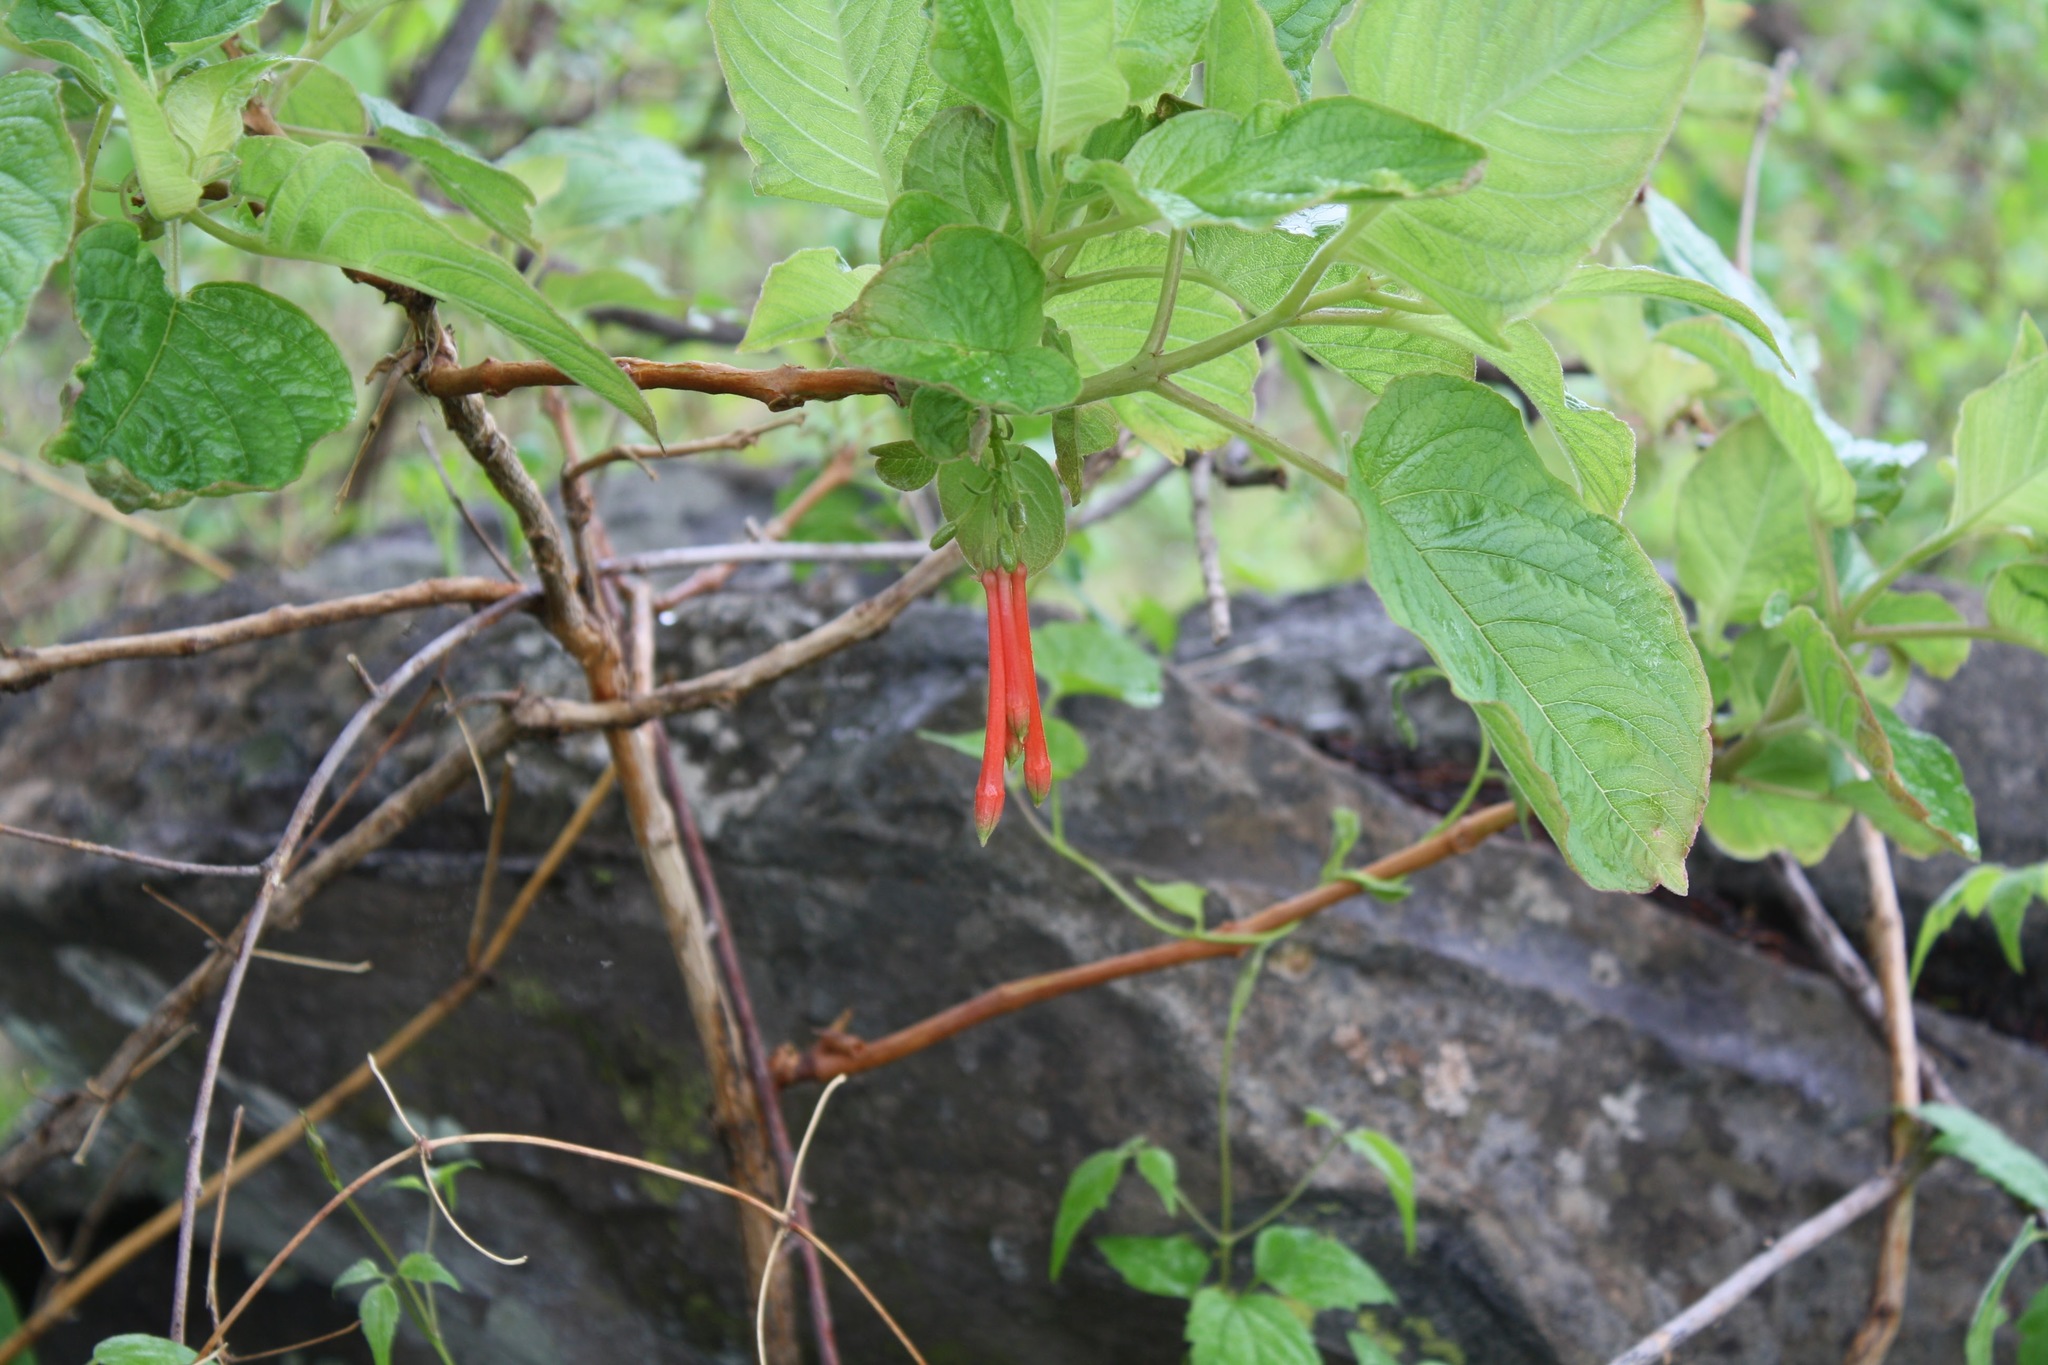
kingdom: Plantae
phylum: Tracheophyta
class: Magnoliopsida
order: Myrtales
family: Onagraceae
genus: Fuchsia
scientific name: Fuchsia fulgens
